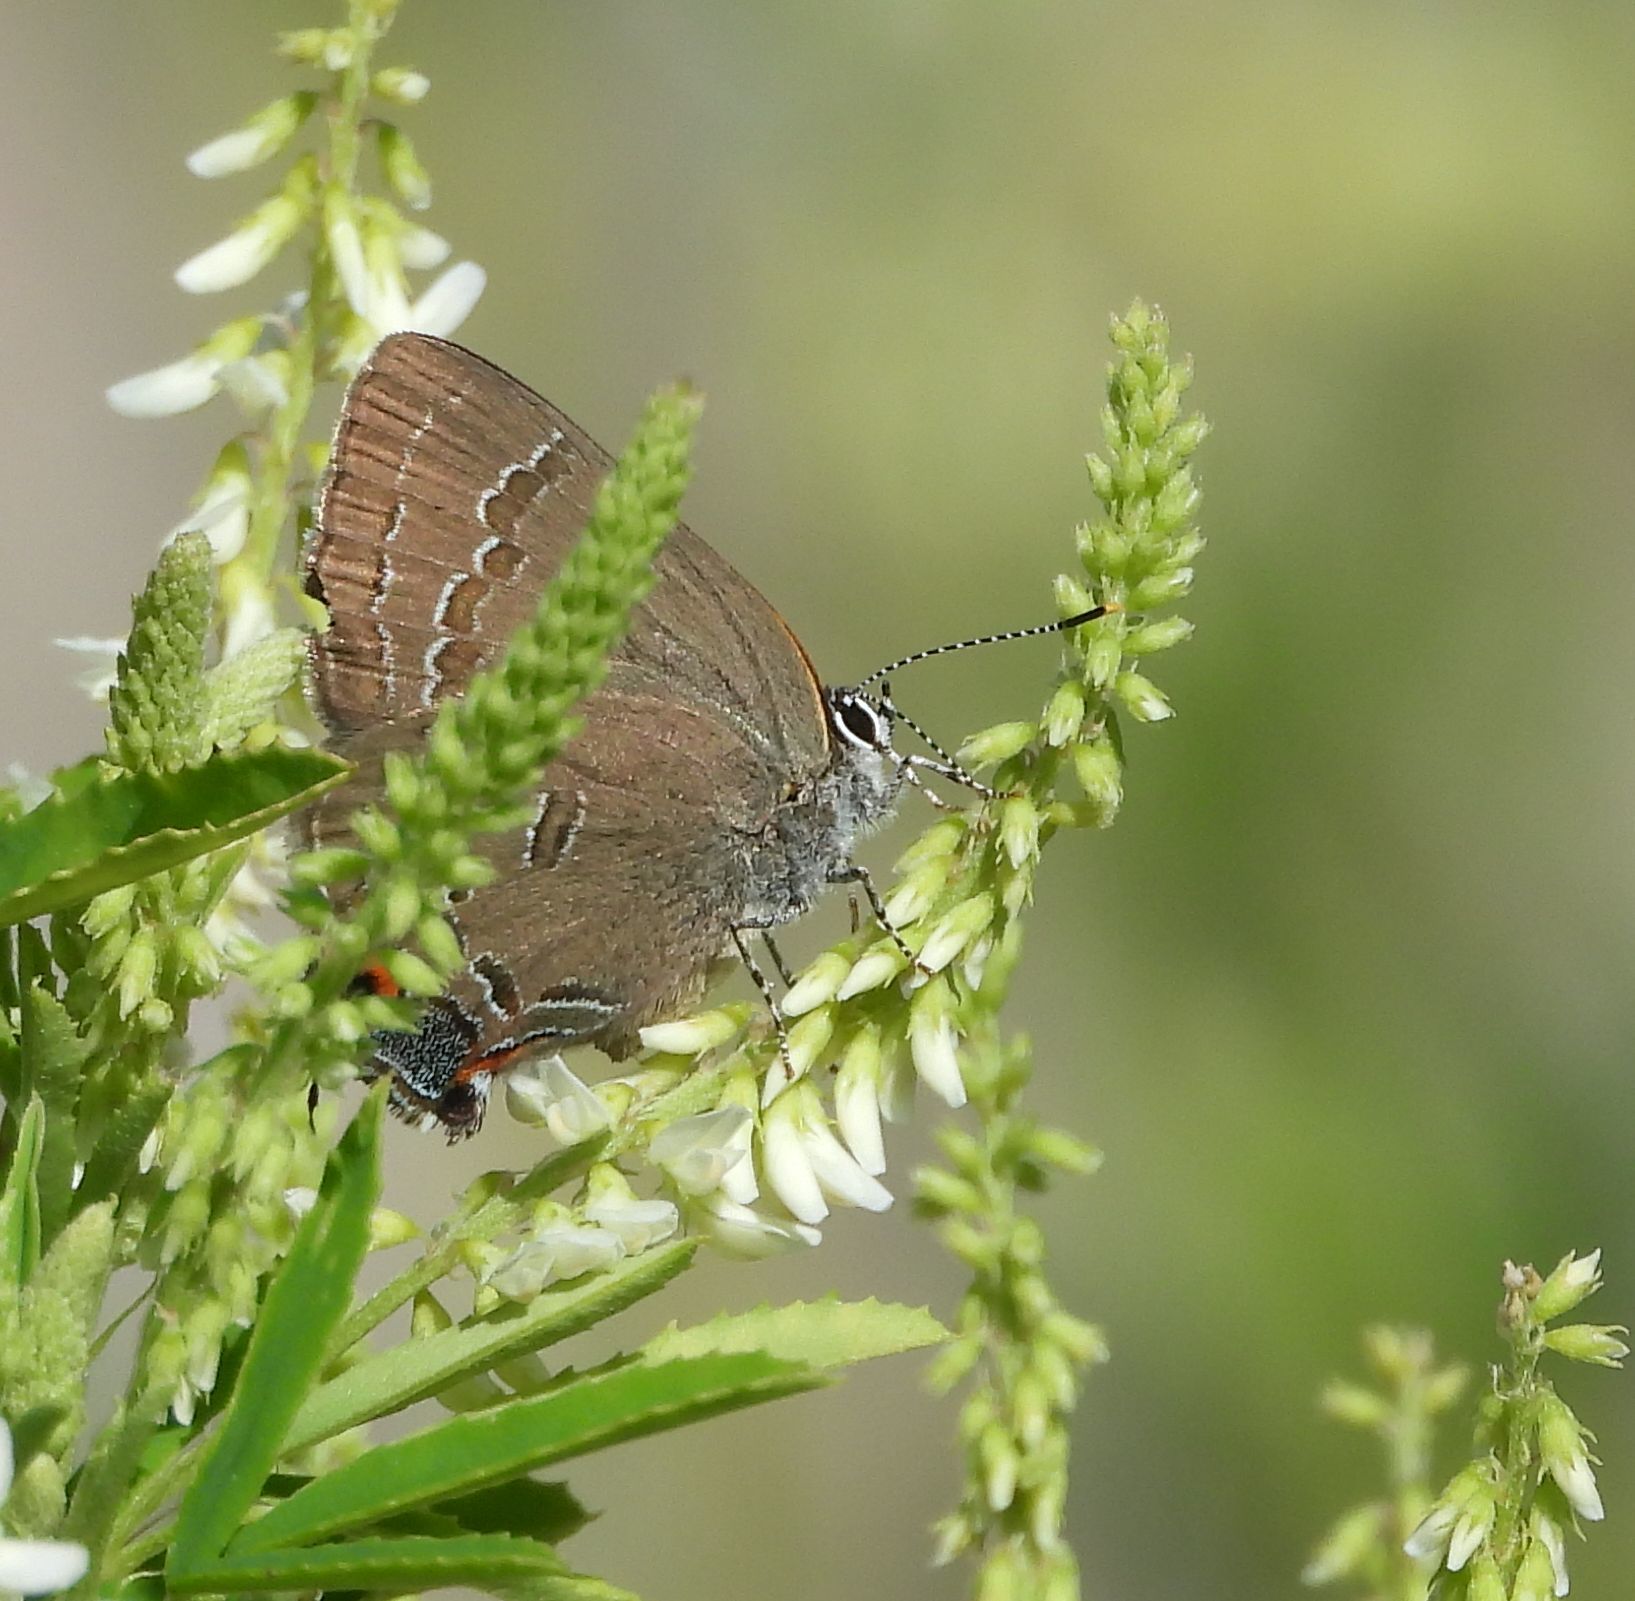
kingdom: Animalia
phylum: Arthropoda
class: Insecta
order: Lepidoptera
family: Lycaenidae
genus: Satyrium
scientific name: Satyrium calanus
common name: Banded hairstreak
